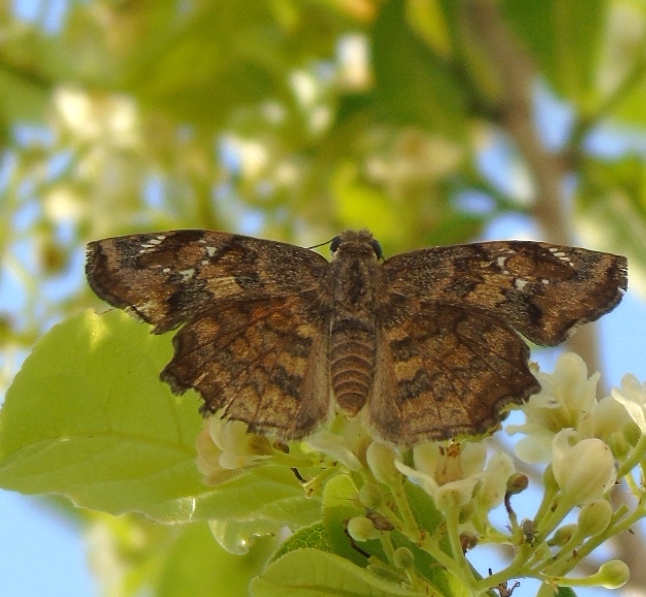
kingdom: Animalia
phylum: Arthropoda
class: Insecta
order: Lepidoptera
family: Hesperiidae
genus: Antigonus
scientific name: Antigonus erosus
